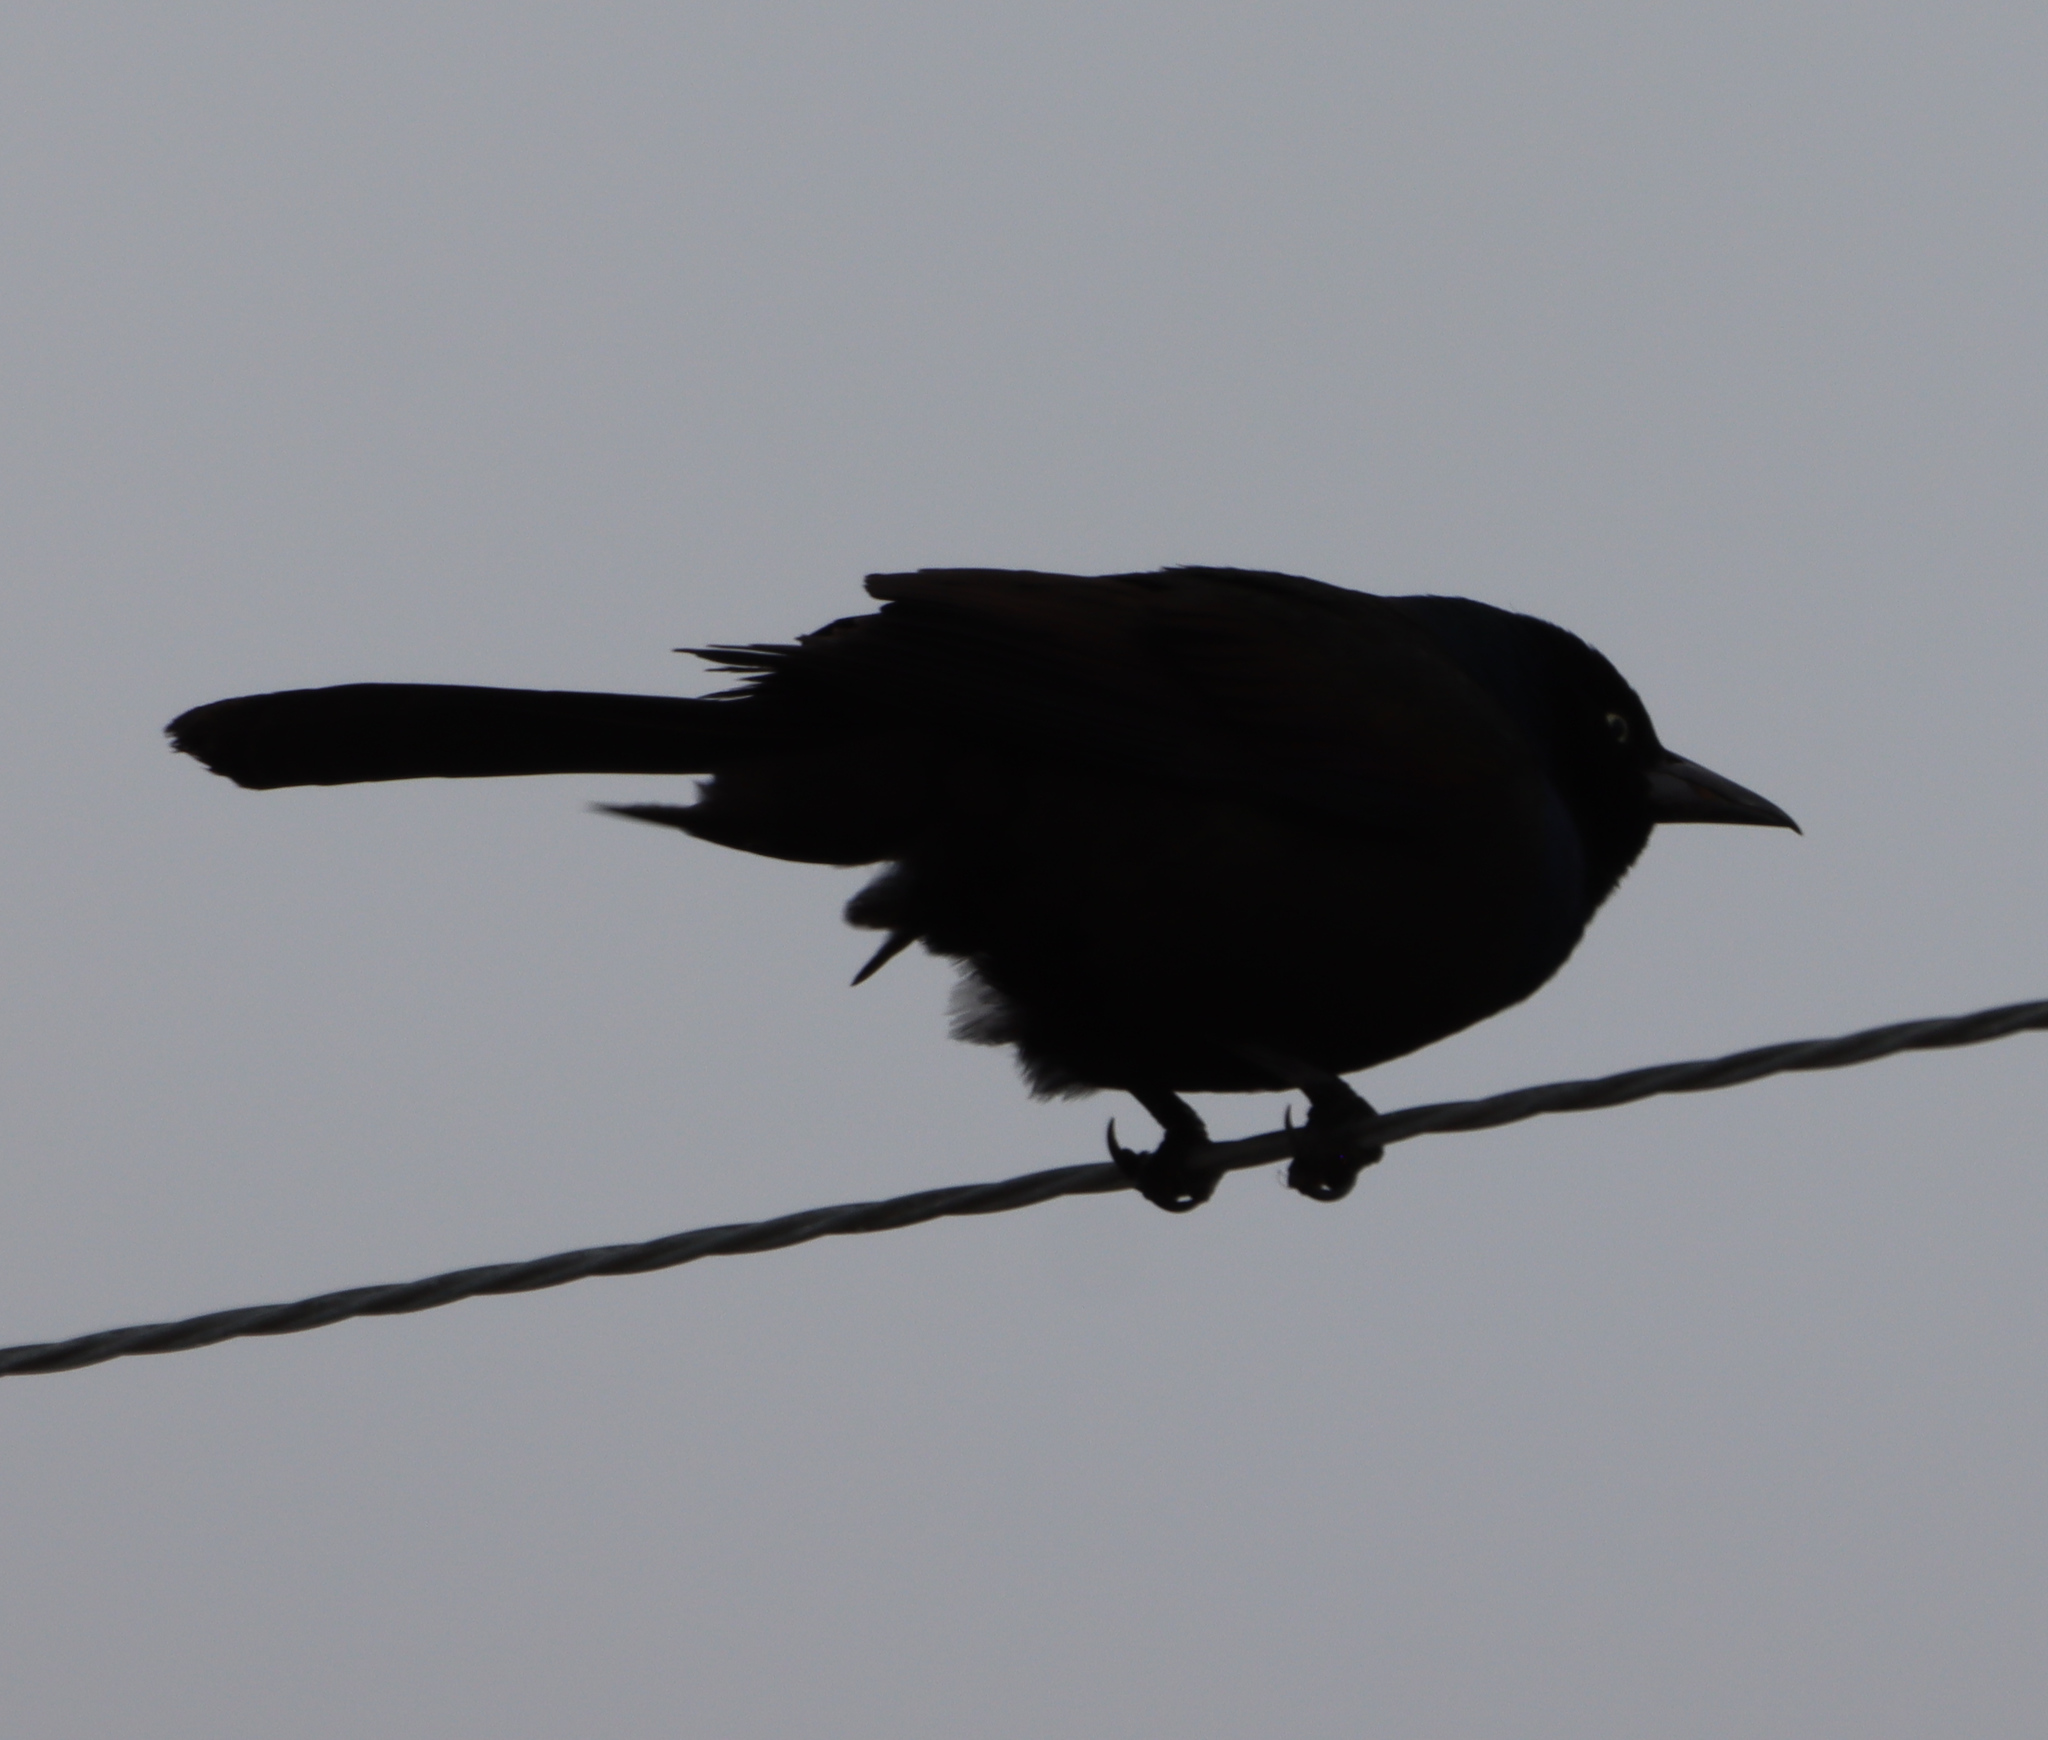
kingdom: Animalia
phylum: Chordata
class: Aves
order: Passeriformes
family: Icteridae
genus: Quiscalus
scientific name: Quiscalus quiscula
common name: Common grackle
